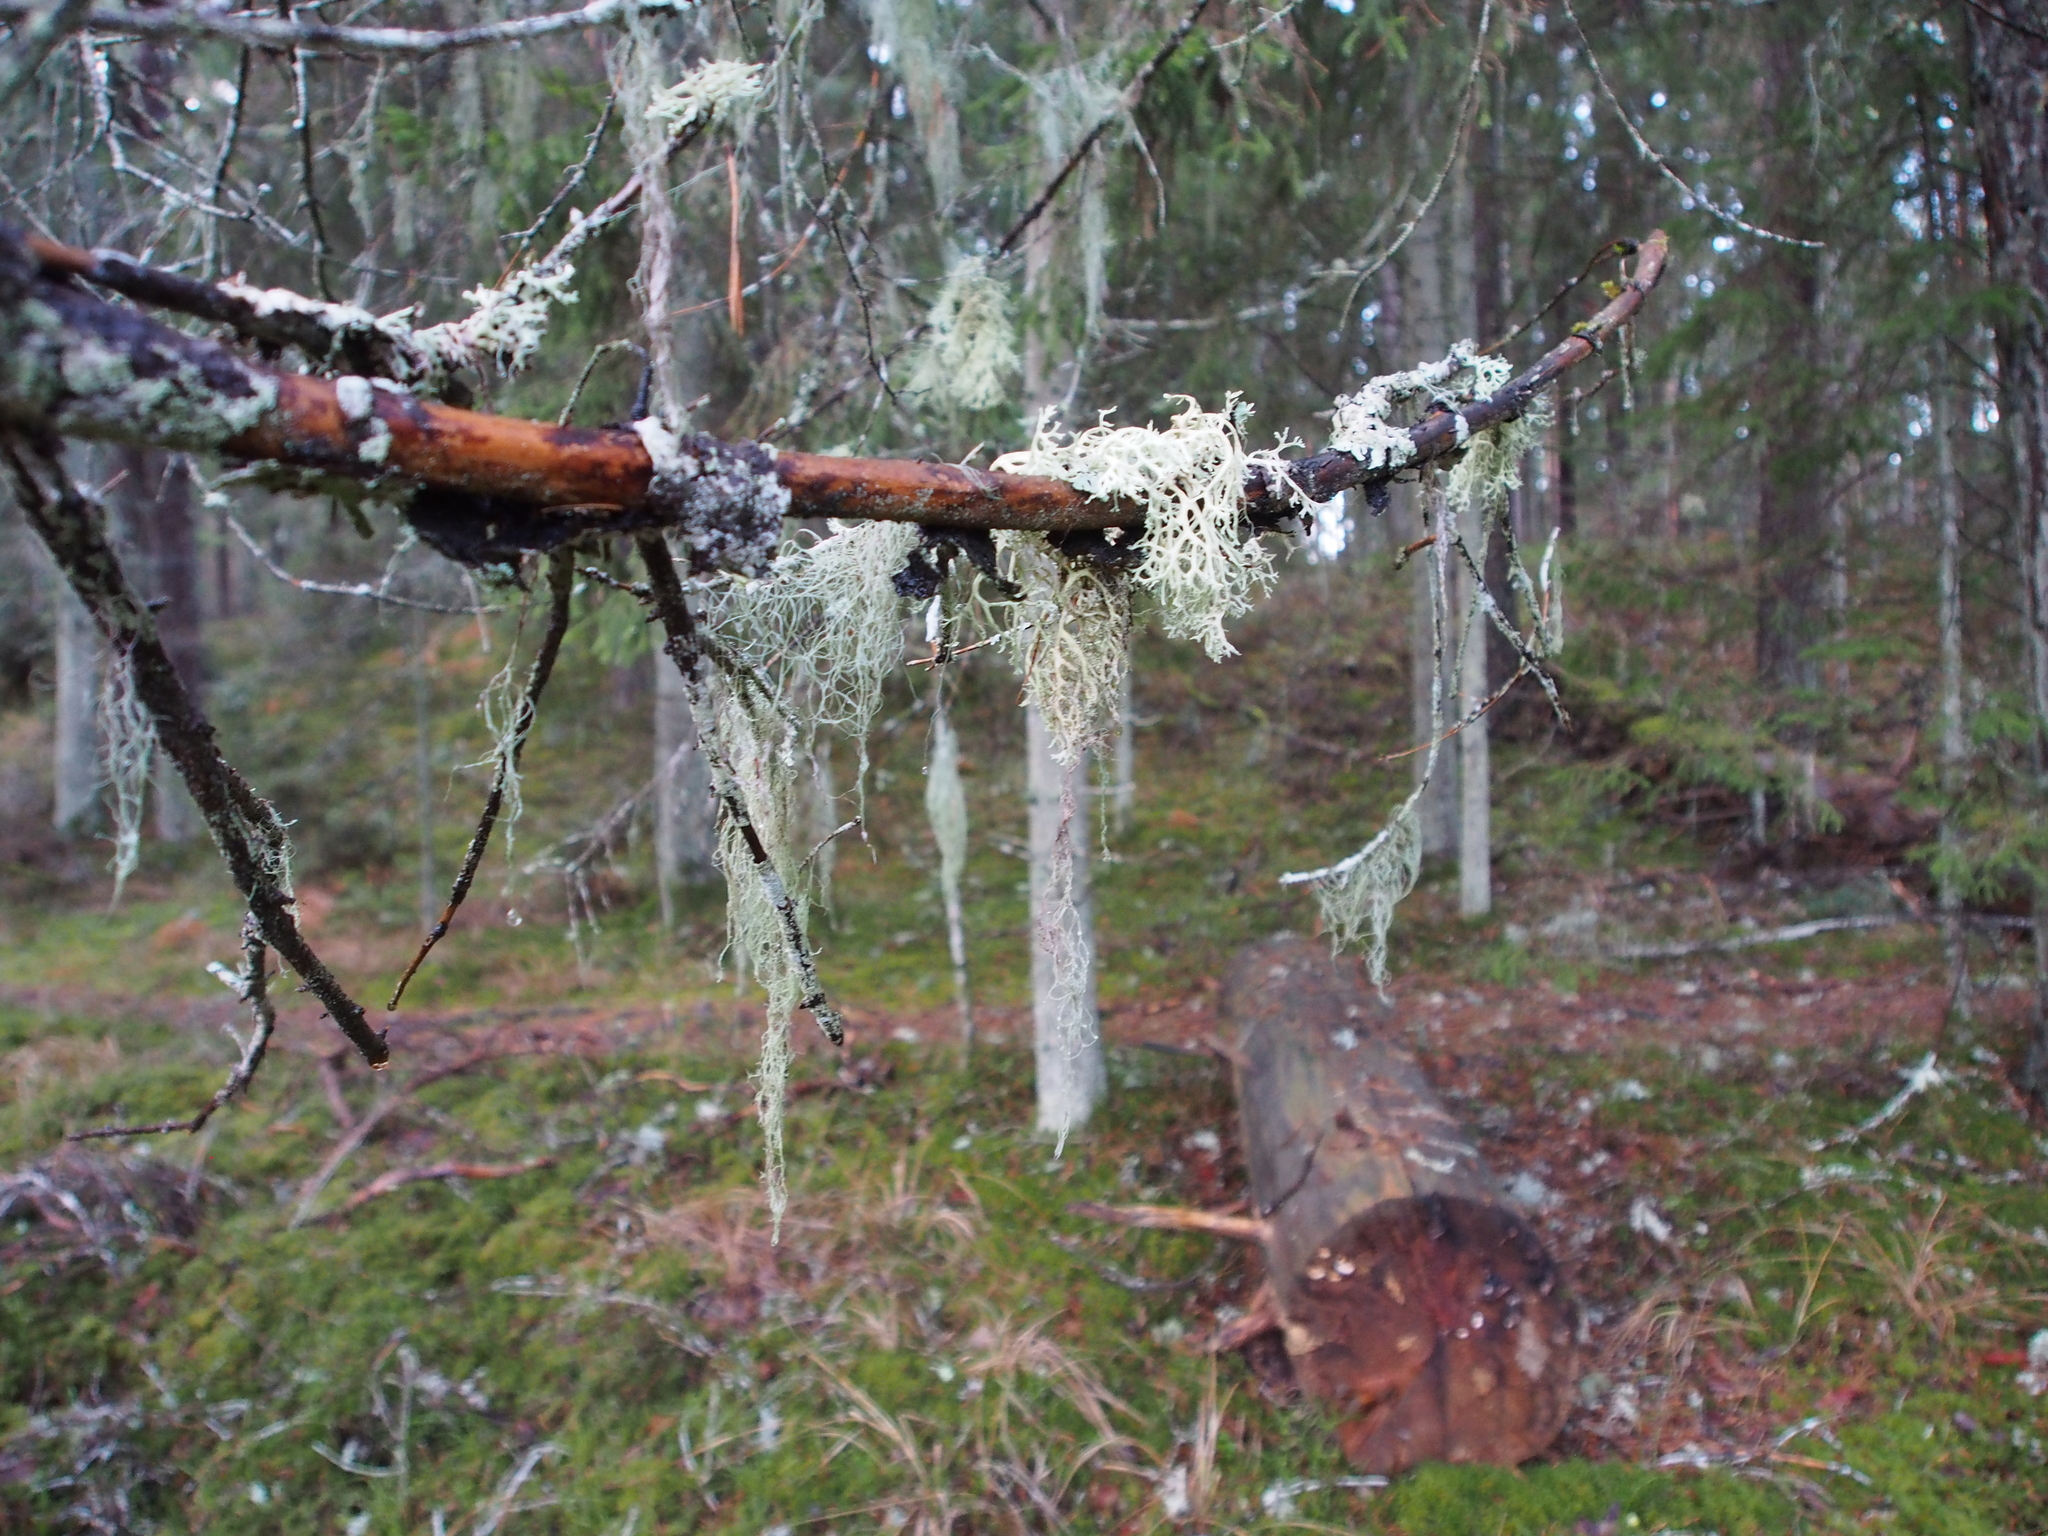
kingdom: Fungi
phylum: Ascomycota
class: Lecanoromycetes
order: Lecanorales
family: Parmeliaceae
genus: Evernia
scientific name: Evernia prunastri
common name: Oak moss
